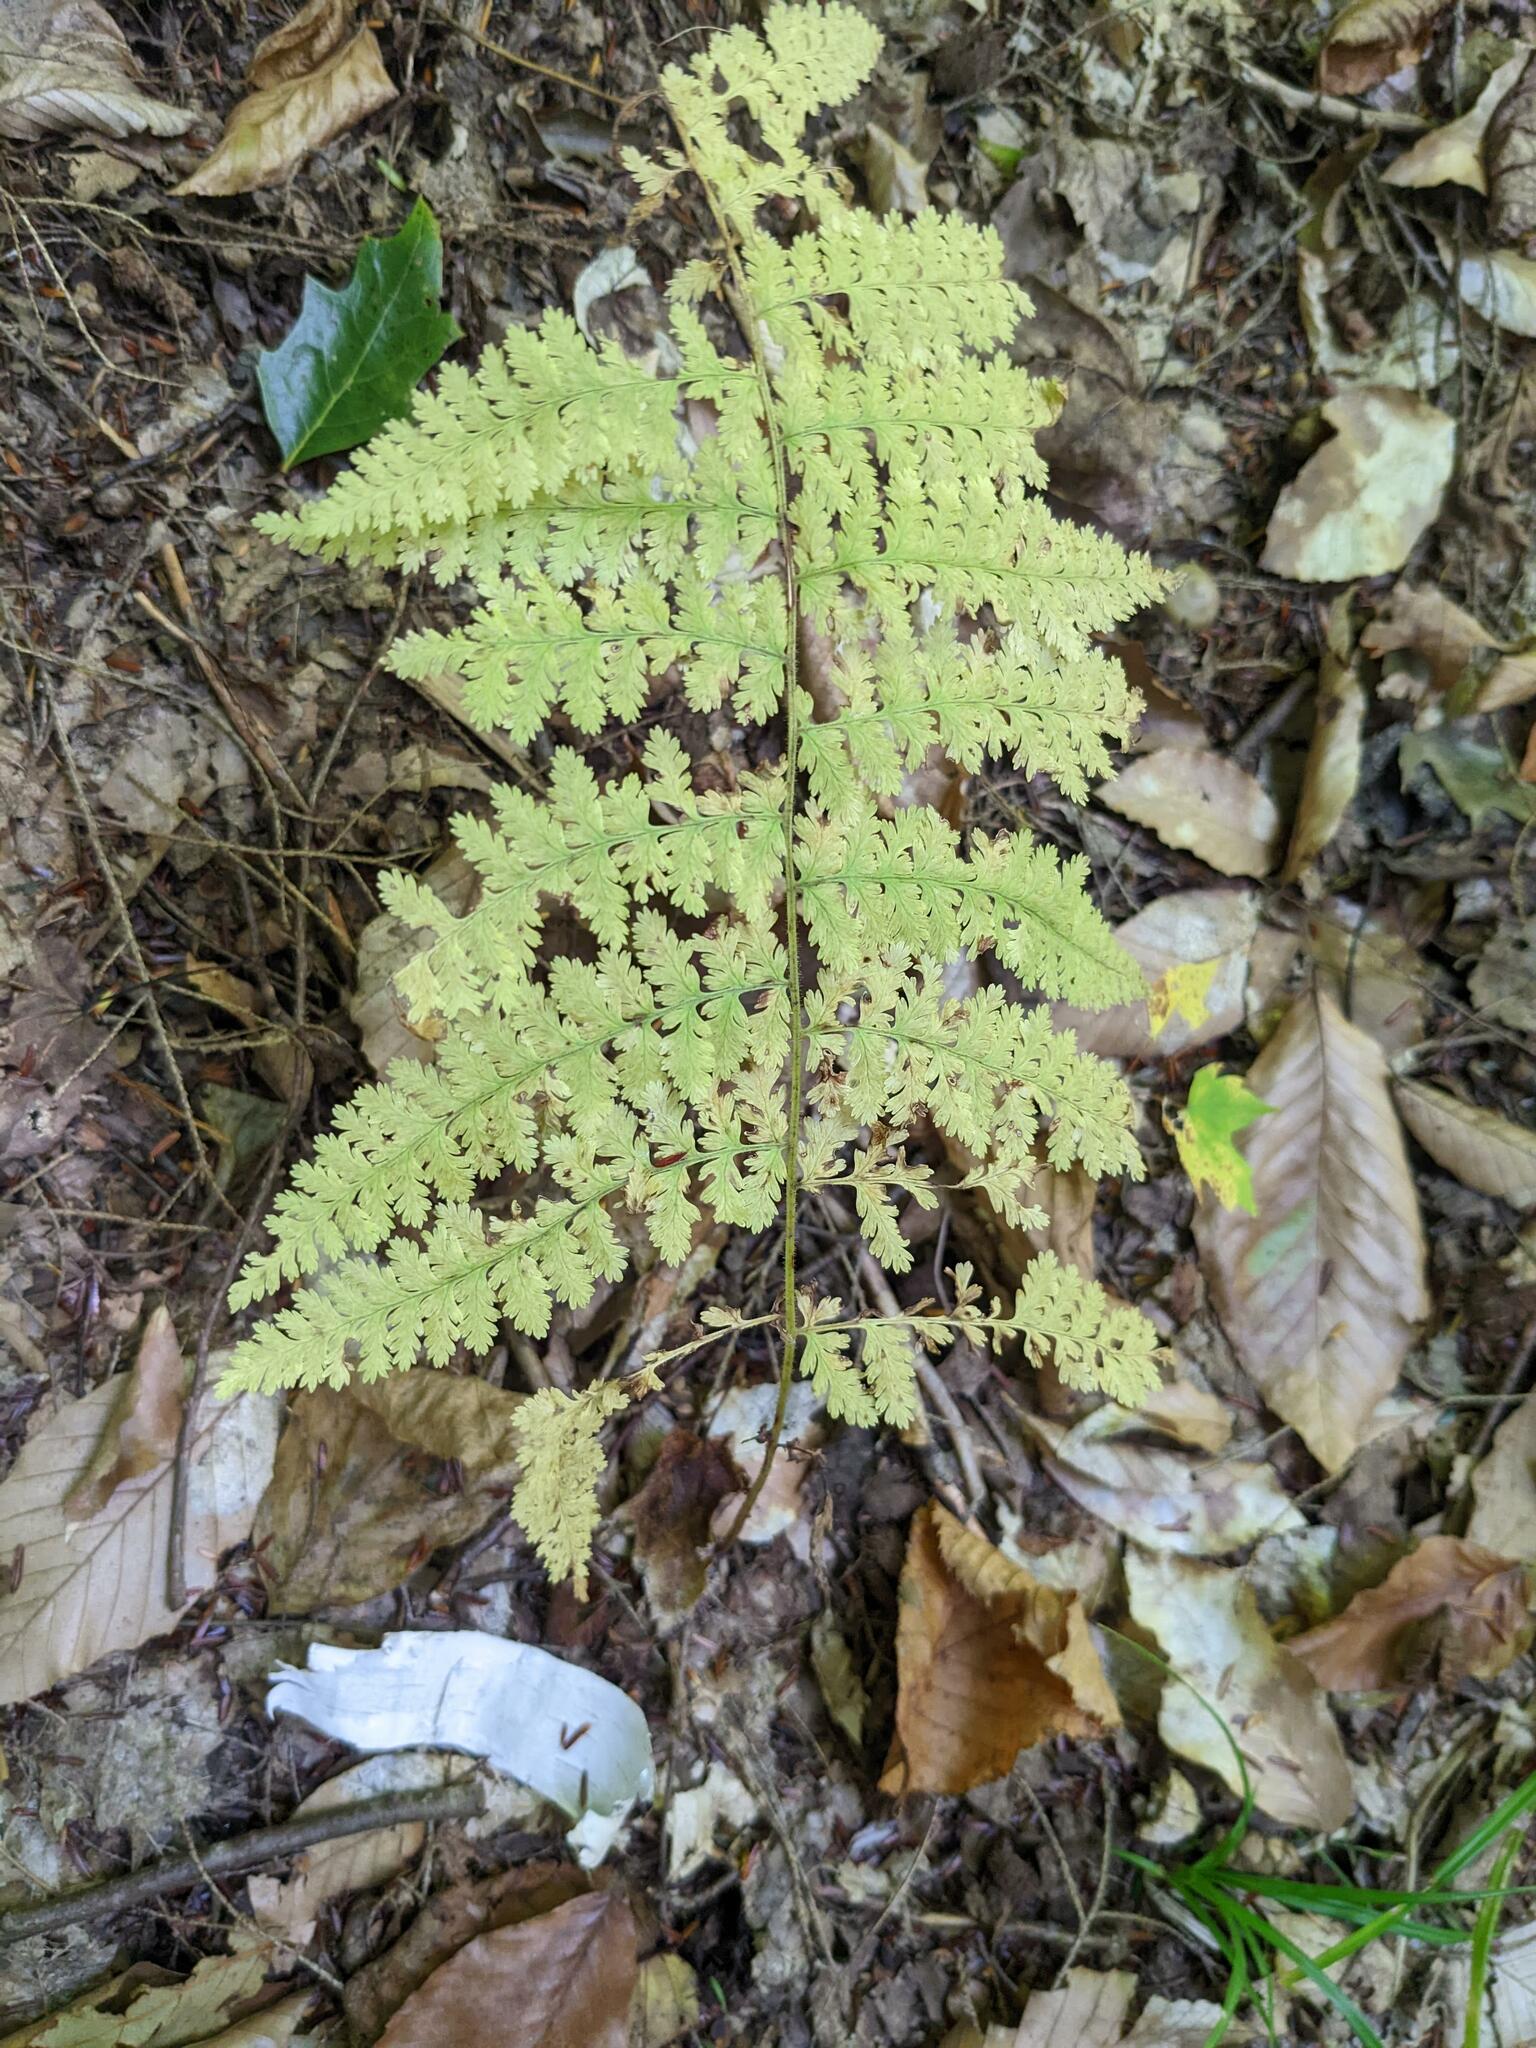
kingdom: Plantae
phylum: Tracheophyta
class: Polypodiopsida
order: Polypodiales
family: Dennstaedtiaceae
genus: Sitobolium
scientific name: Sitobolium punctilobum
